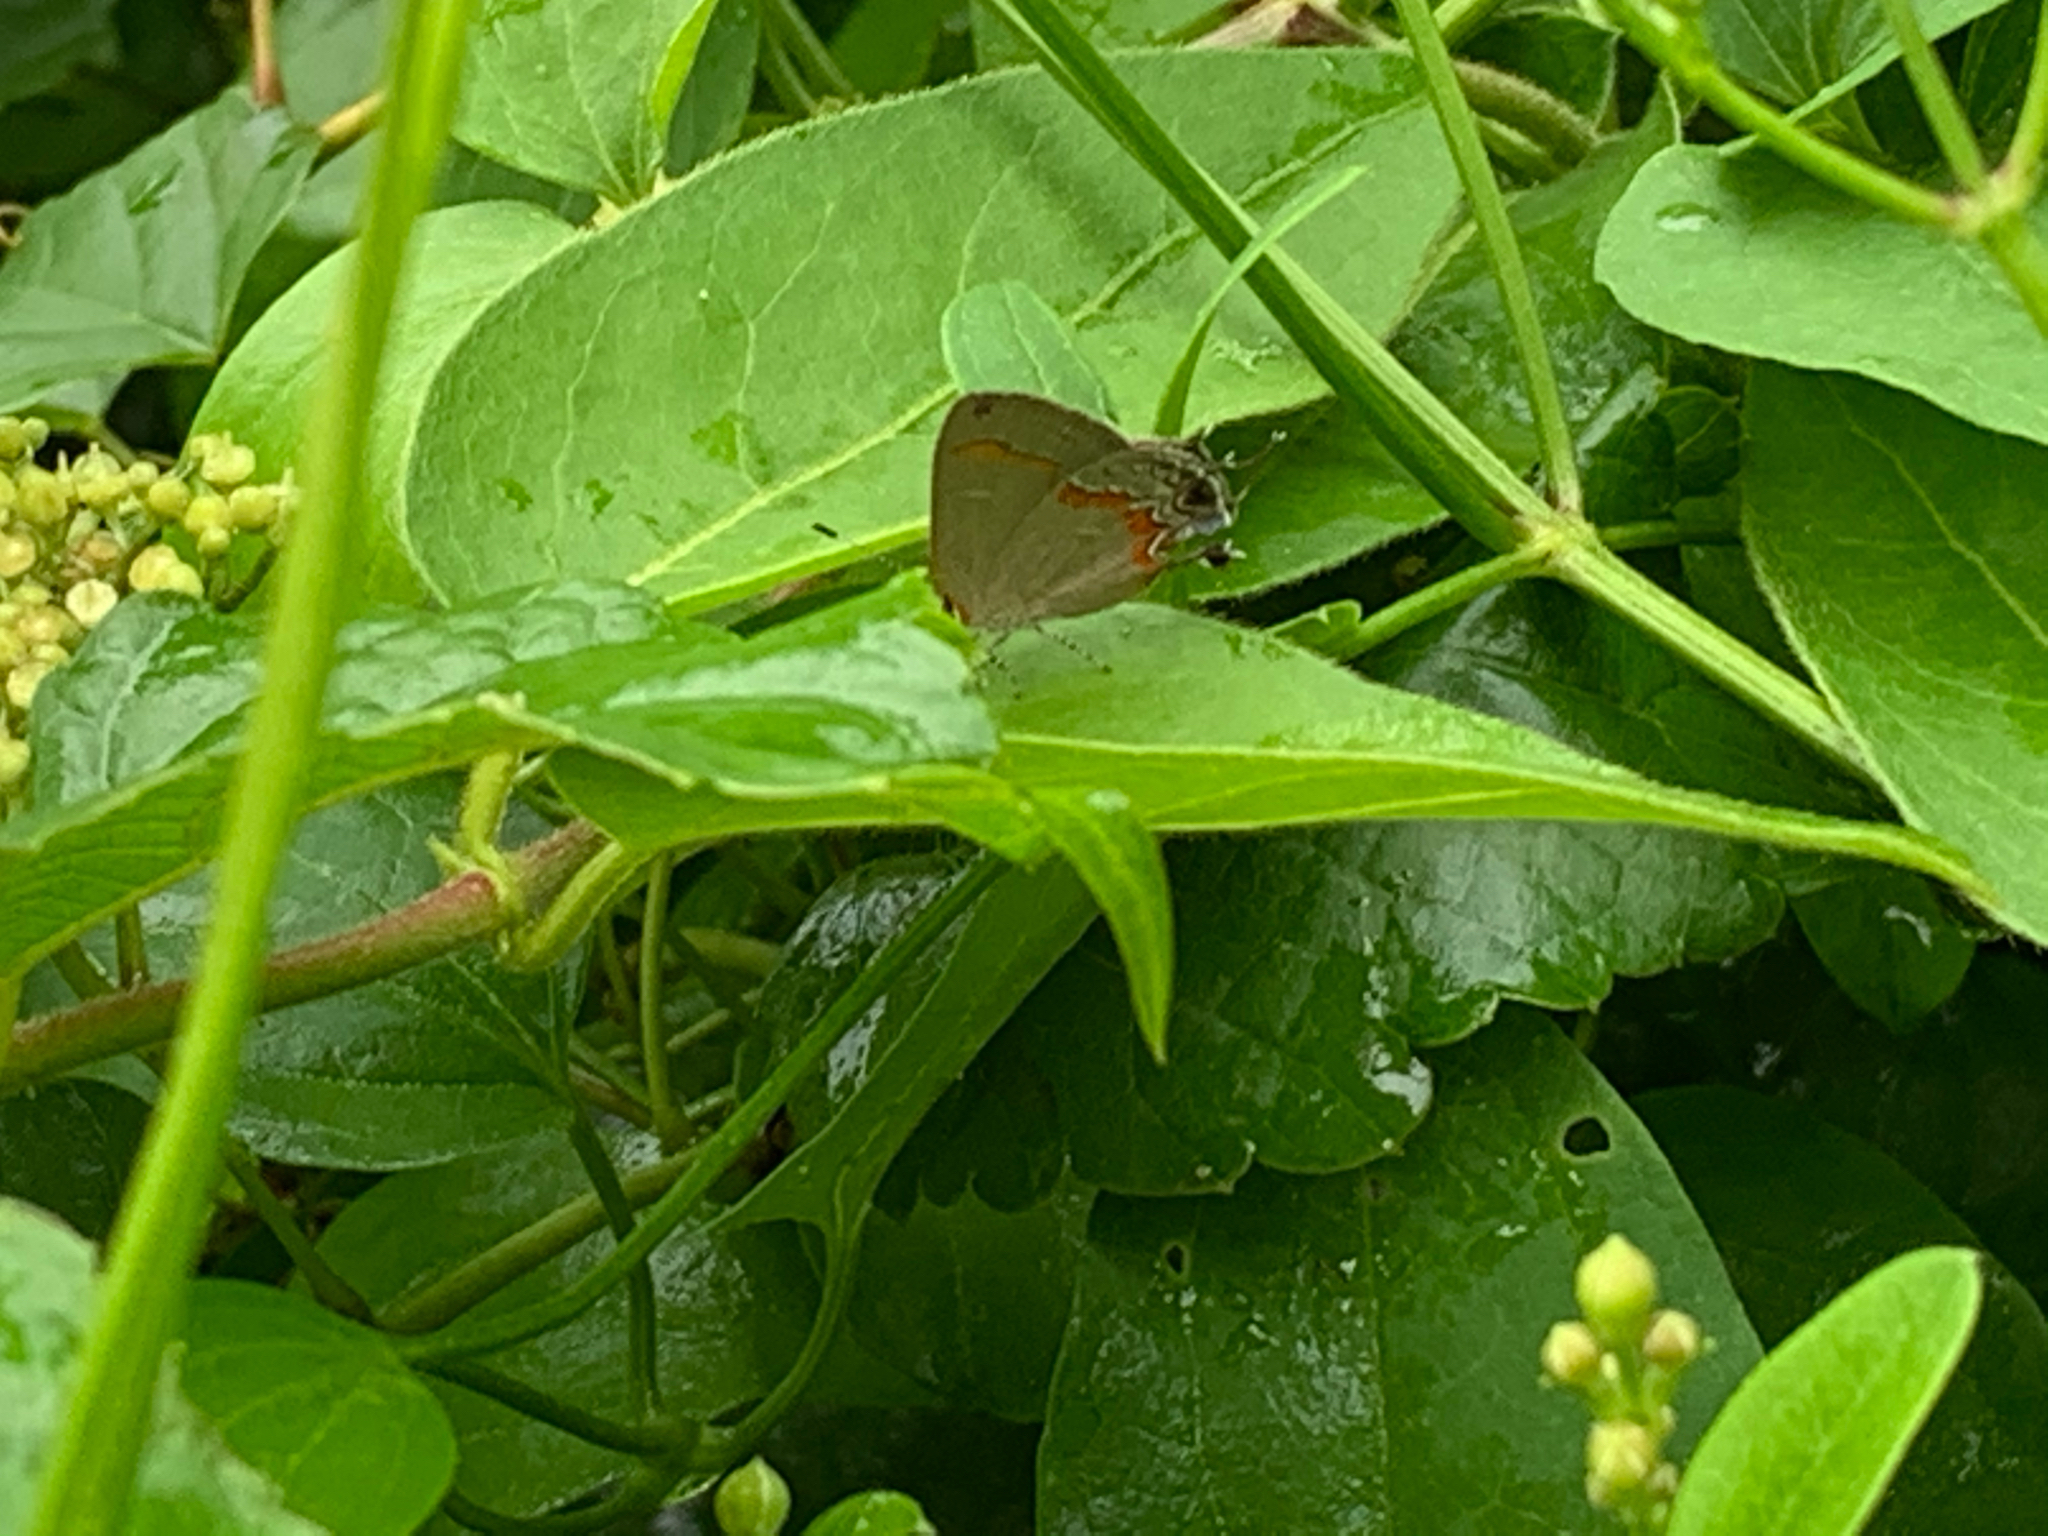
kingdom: Animalia
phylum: Arthropoda
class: Insecta
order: Lepidoptera
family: Lycaenidae
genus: Calycopis
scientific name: Calycopis cecrops
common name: Red-banded hairstreak
